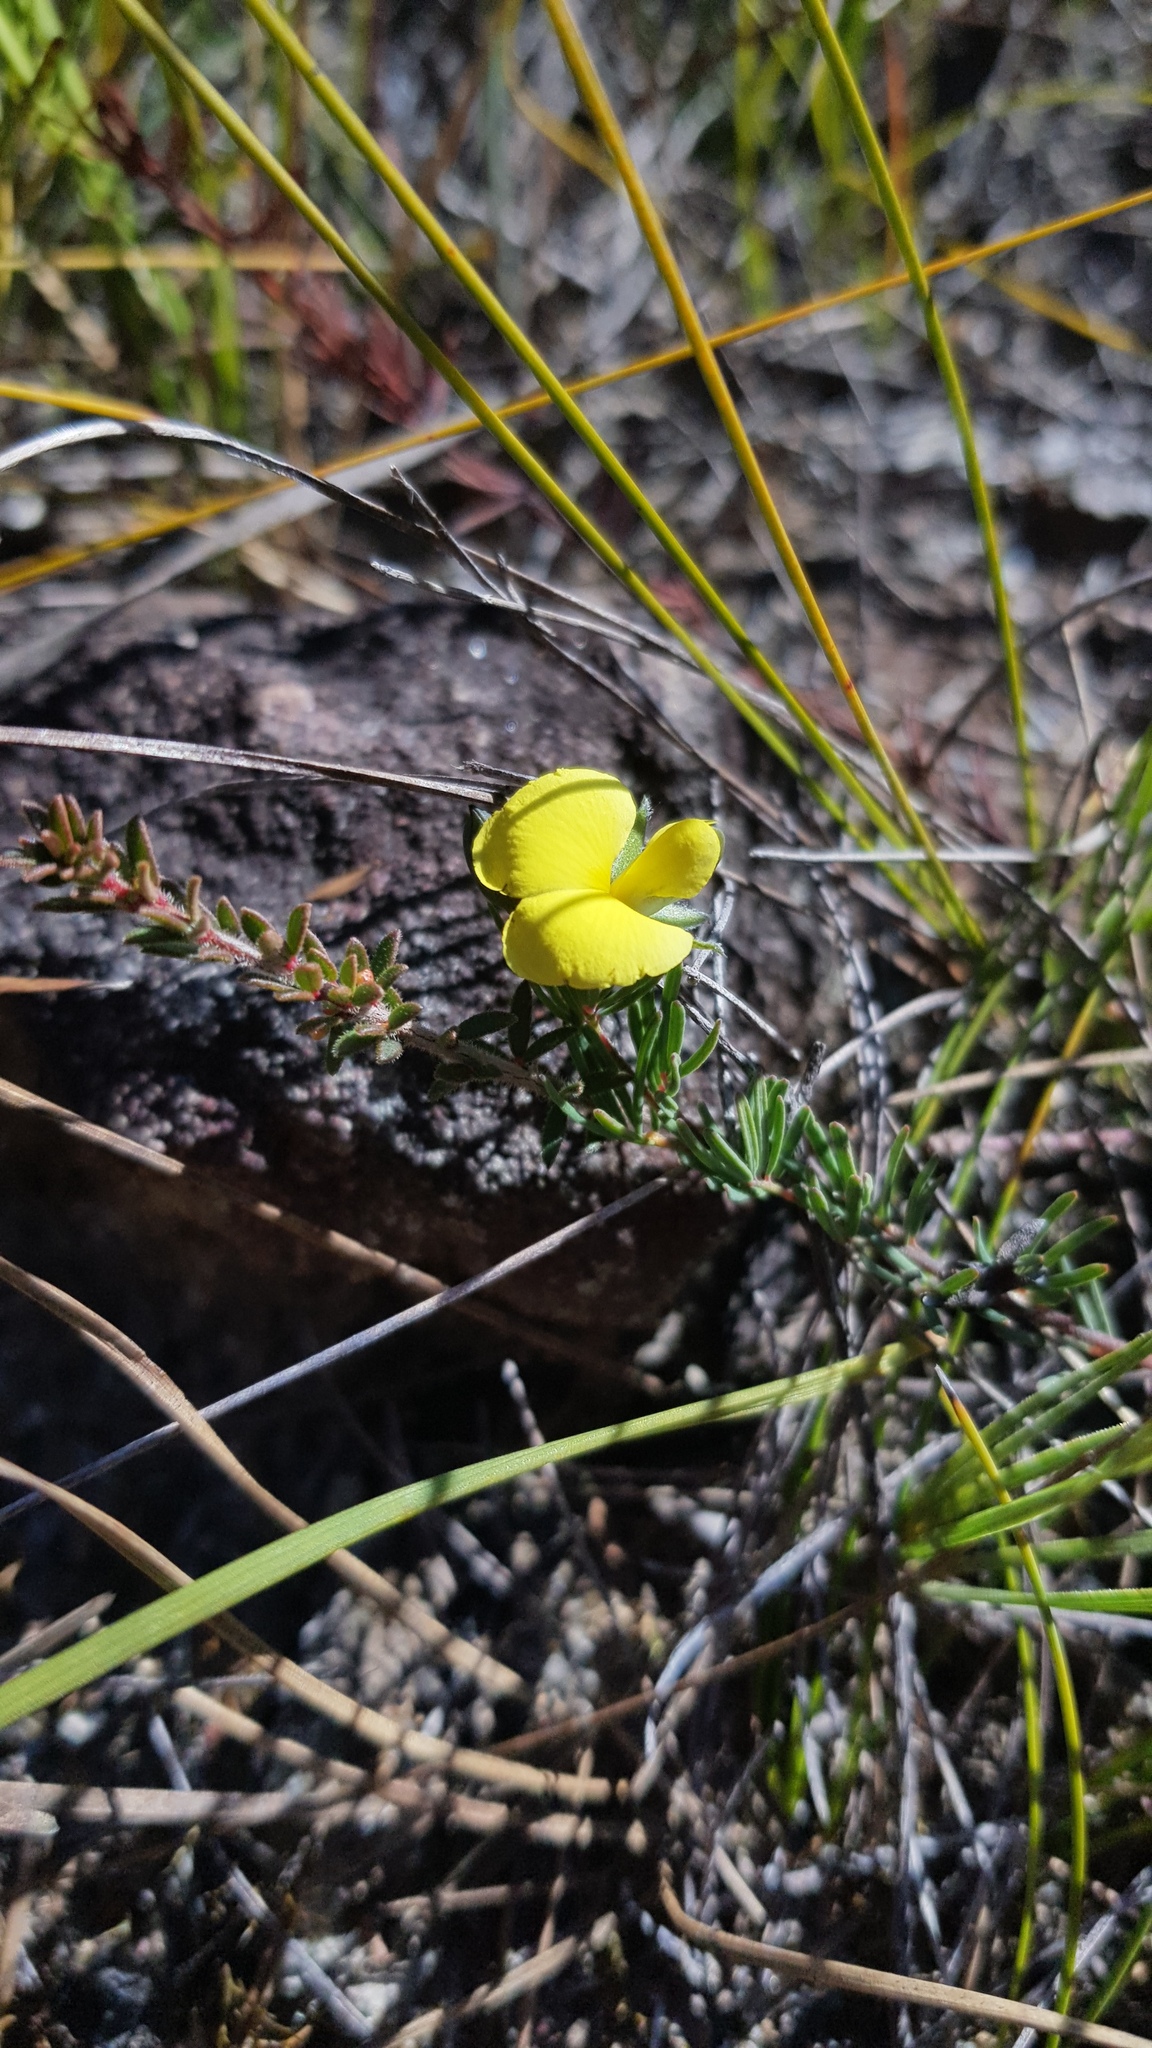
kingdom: Plantae
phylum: Tracheophyta
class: Magnoliopsida
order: Fabales
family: Fabaceae
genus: Gompholobium
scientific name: Gompholobium glabratum
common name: Dainty wedge pea
